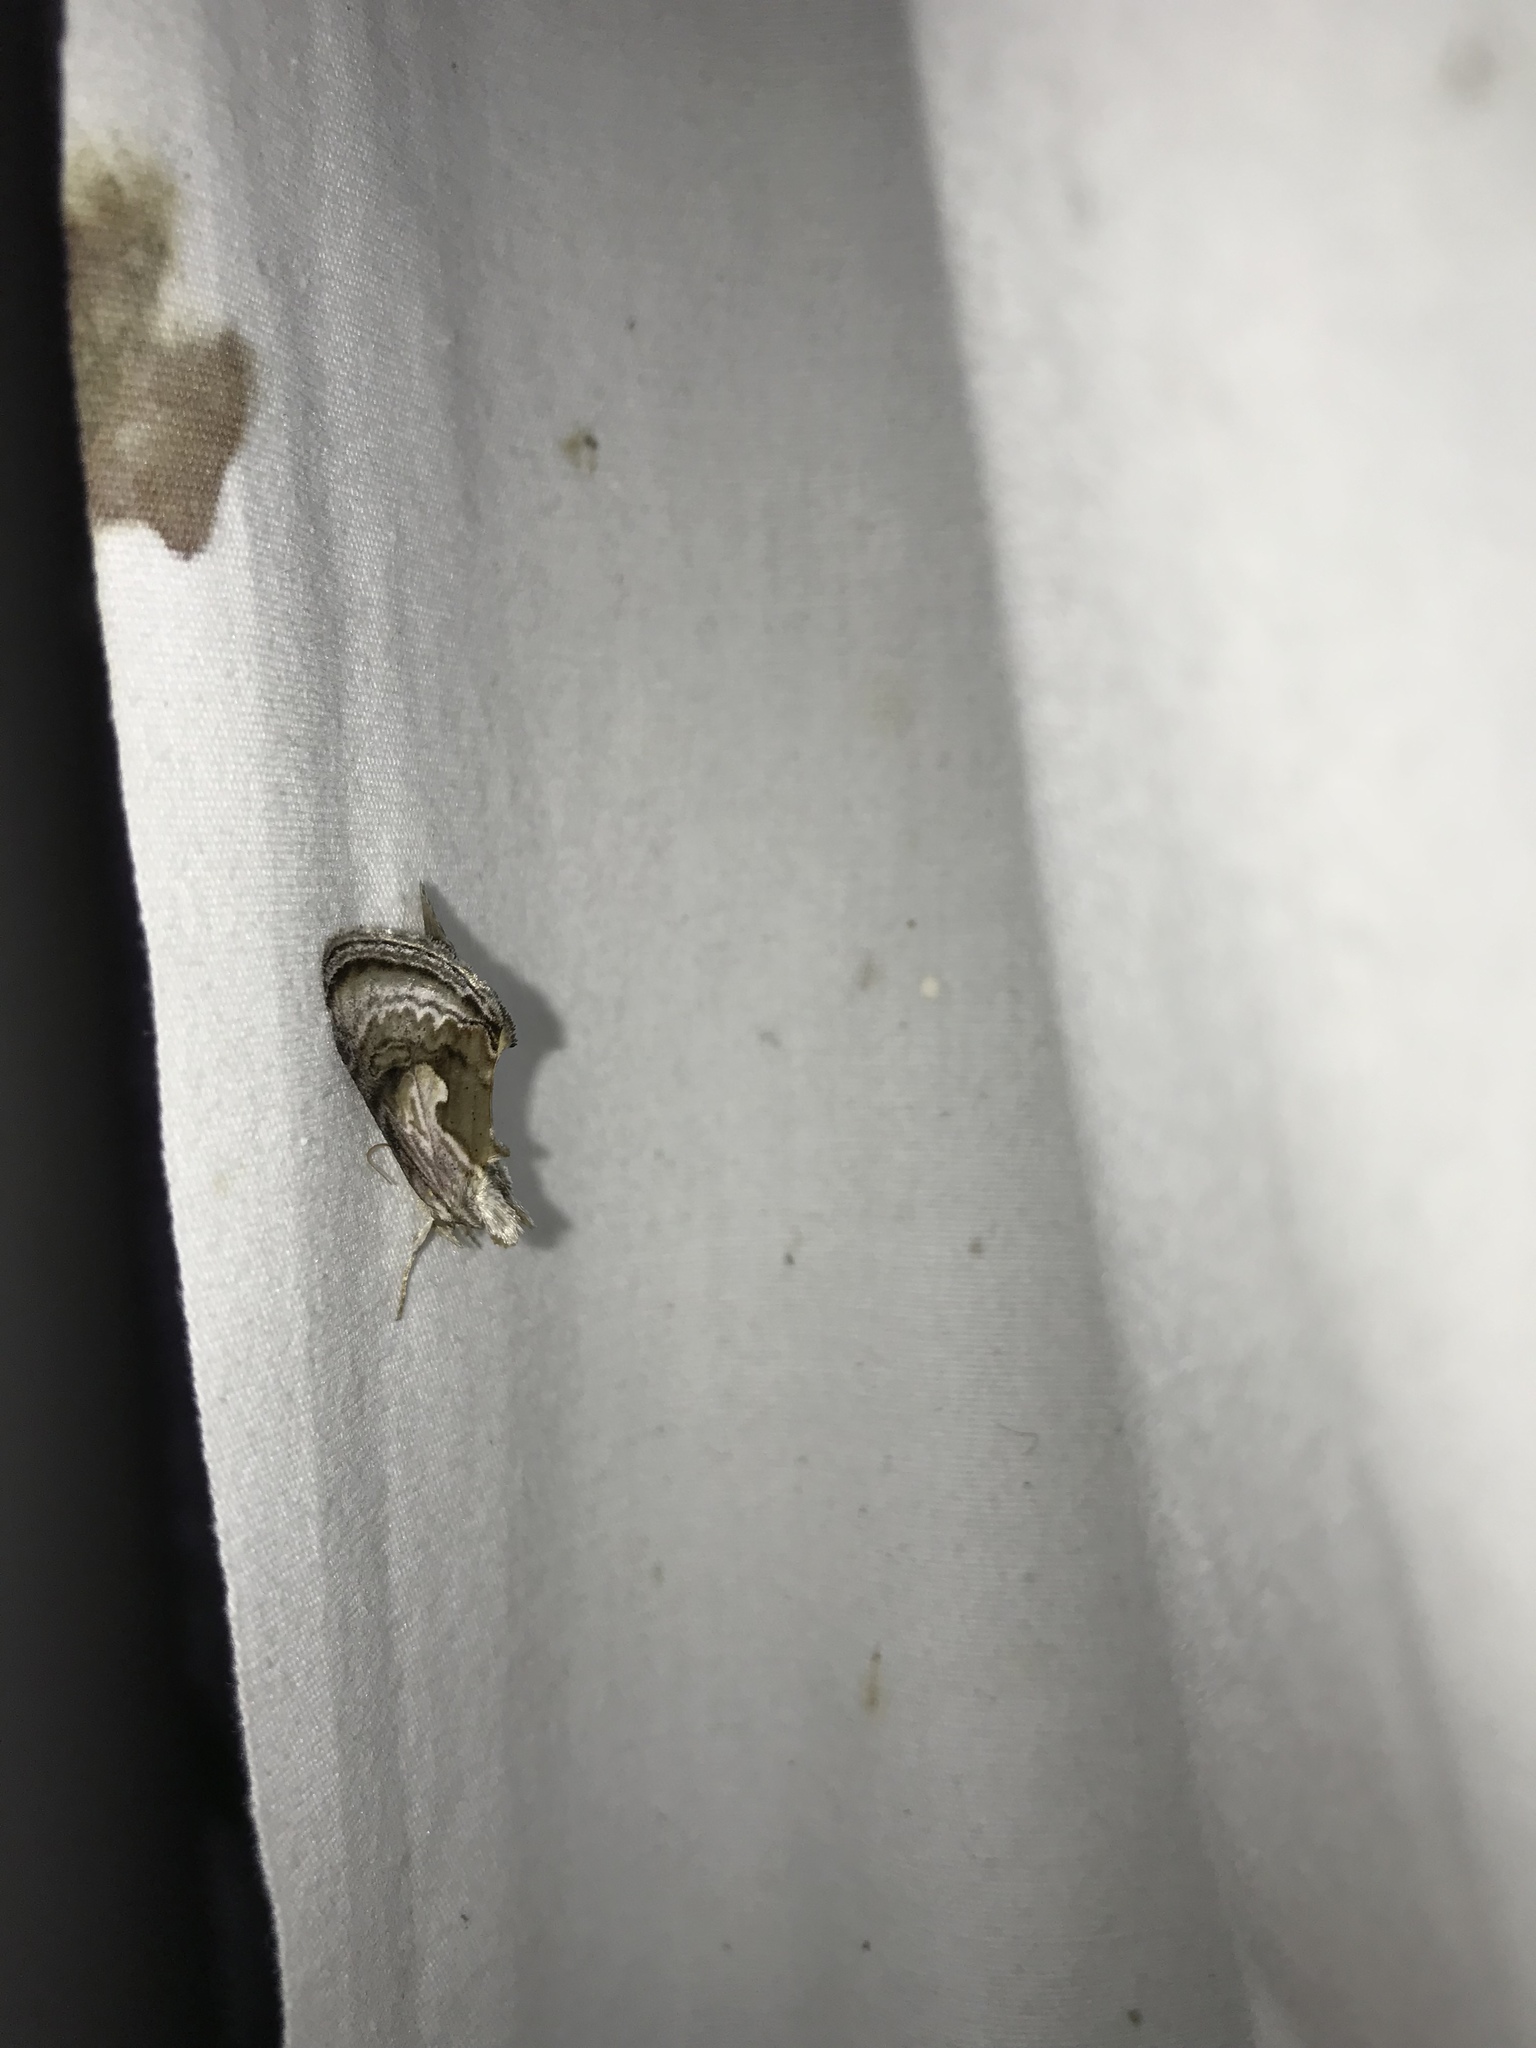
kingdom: Animalia
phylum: Arthropoda
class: Insecta
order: Lepidoptera
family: Noctuidae
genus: Chrysanympha
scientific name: Chrysanympha formosa
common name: Formosa looper moth
